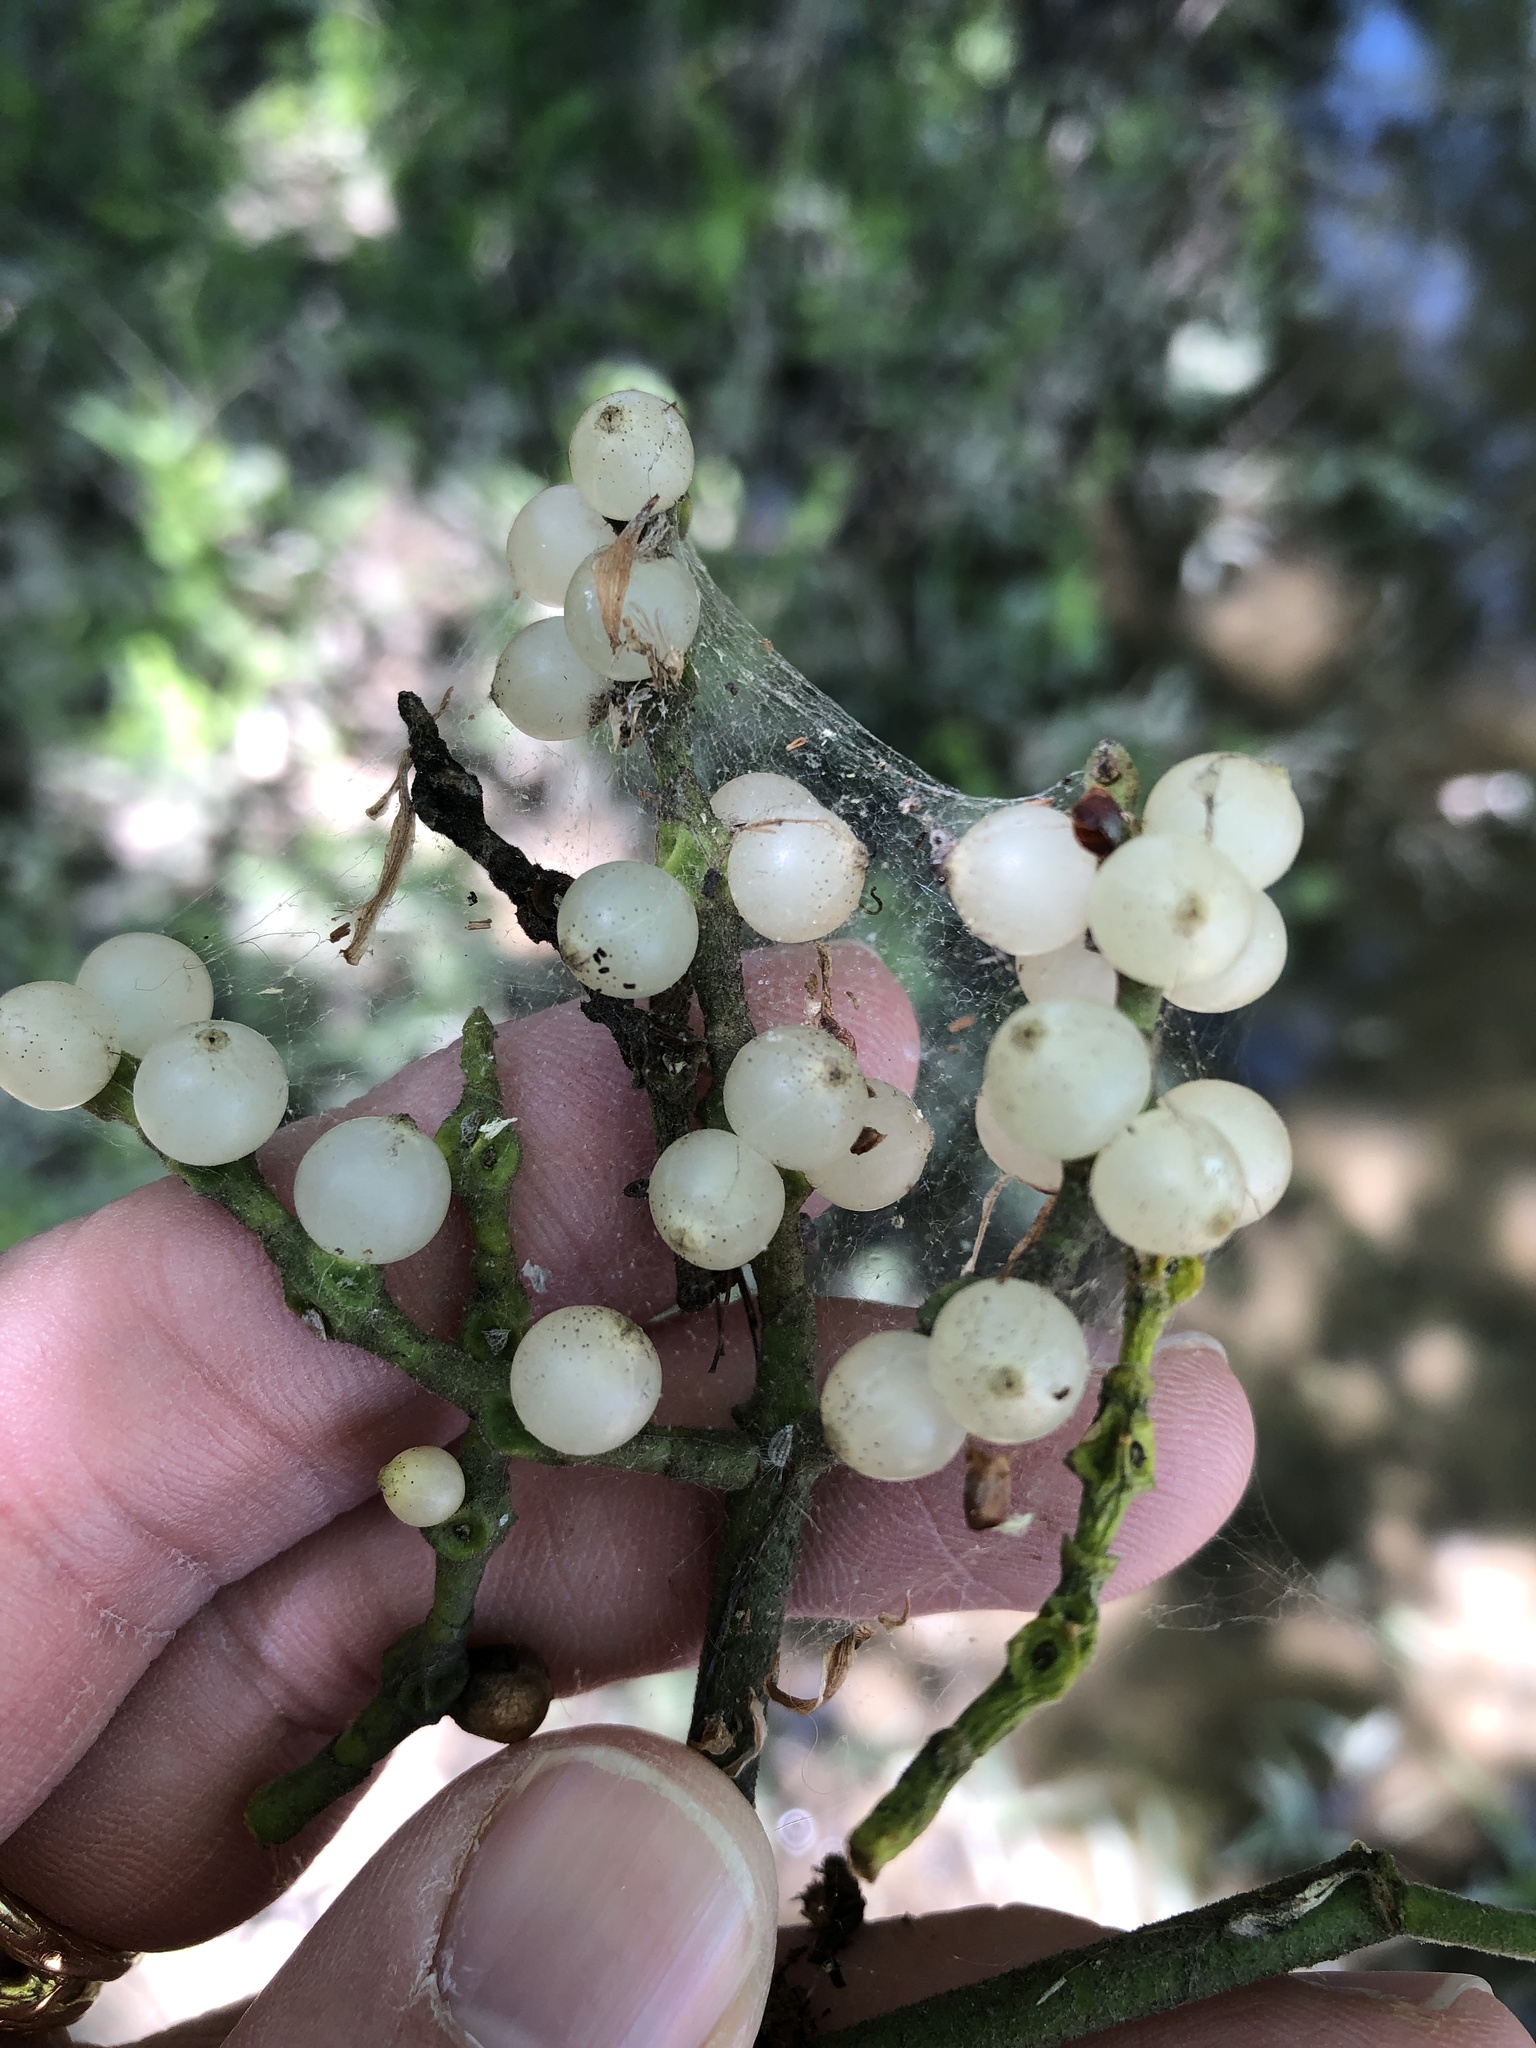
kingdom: Plantae
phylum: Tracheophyta
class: Magnoliopsida
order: Santalales
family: Viscaceae
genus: Phoradendron
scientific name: Phoradendron leucarpum
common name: Pacific mistletoe
